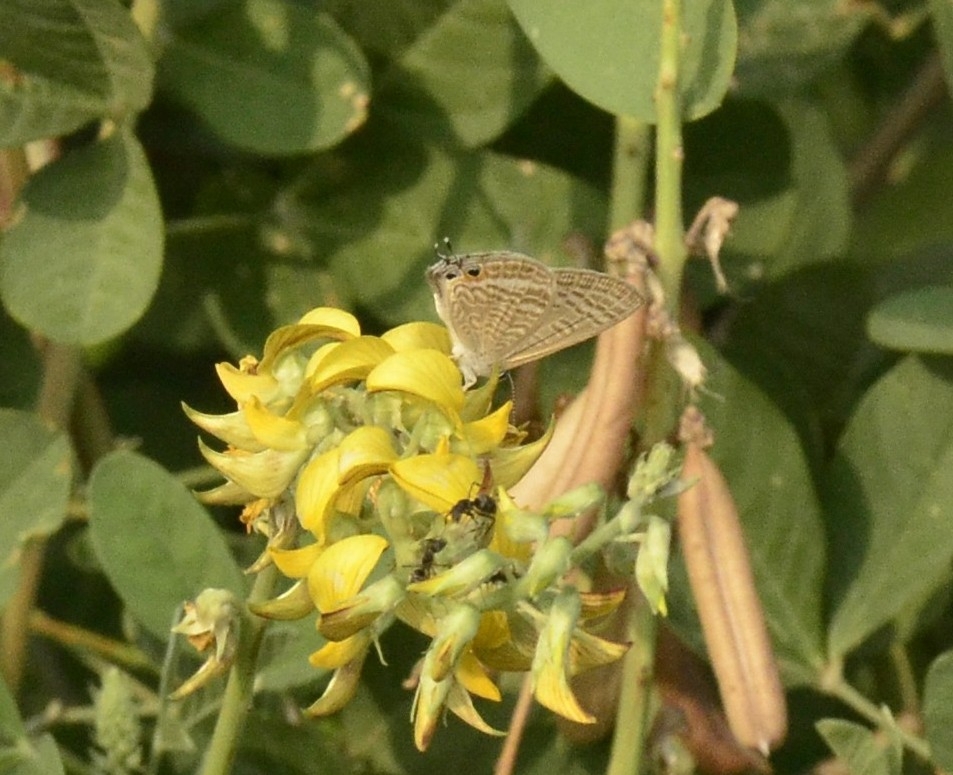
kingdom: Animalia
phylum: Arthropoda
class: Insecta
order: Lepidoptera
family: Lycaenidae
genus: Lampides
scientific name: Lampides boeticus
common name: Long-tailed blue
